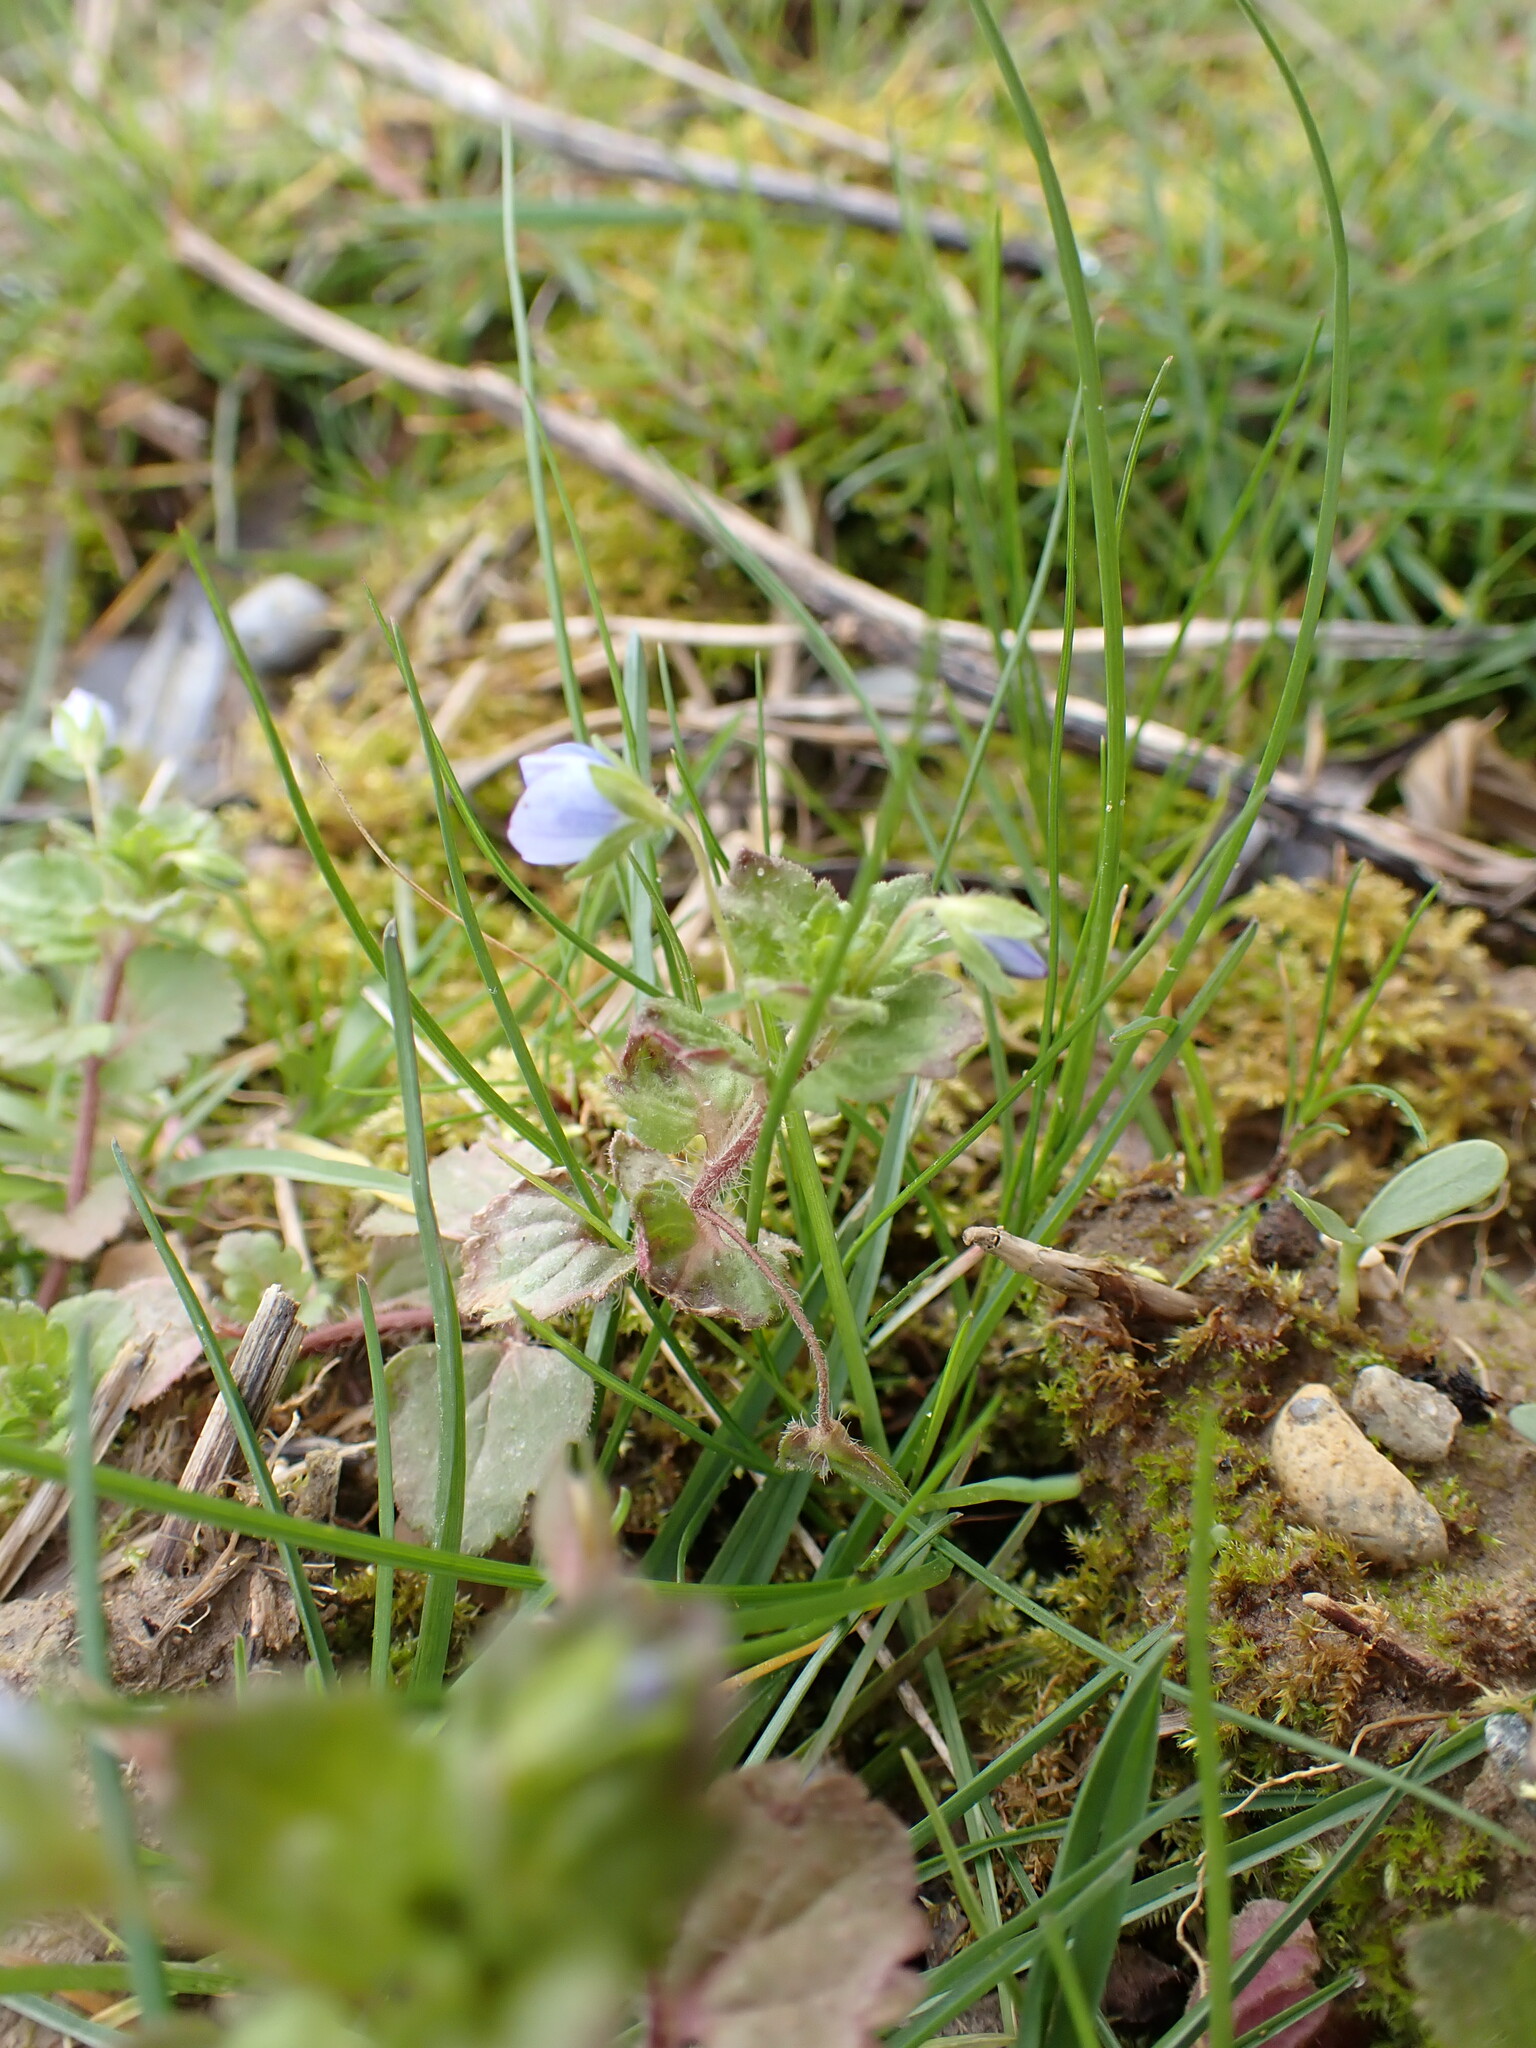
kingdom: Plantae
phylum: Tracheophyta
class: Magnoliopsida
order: Lamiales
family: Plantaginaceae
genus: Veronica
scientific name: Veronica persica
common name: Common field-speedwell
